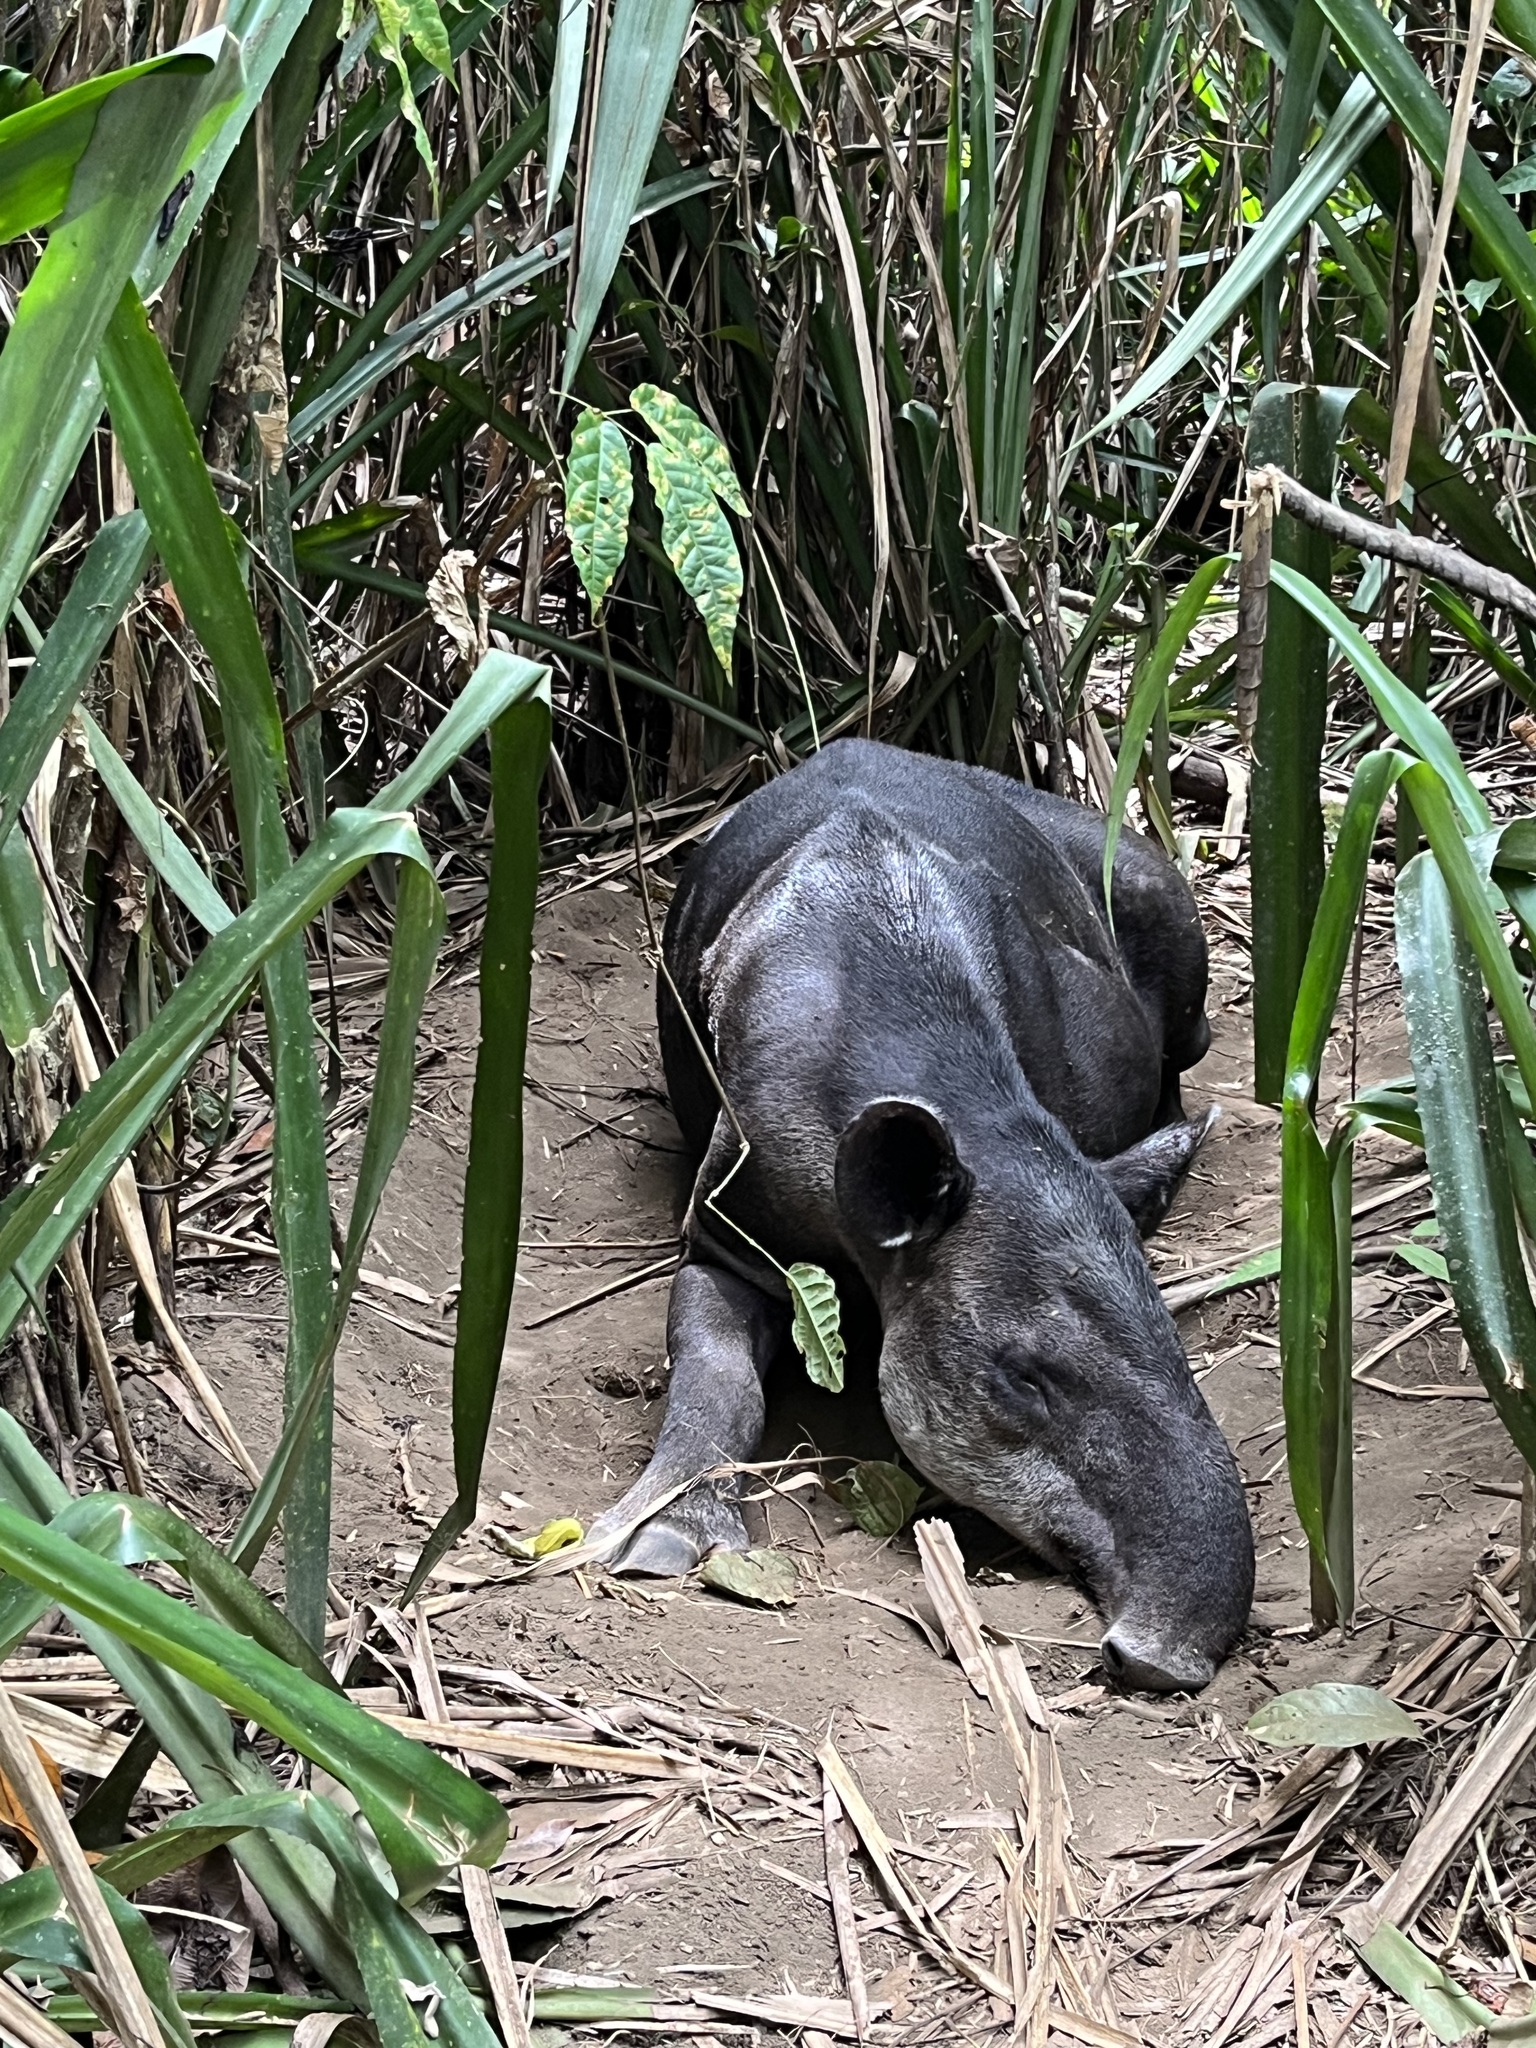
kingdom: Animalia
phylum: Chordata
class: Mammalia
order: Perissodactyla
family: Tapiridae
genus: Tapirella
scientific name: Tapirella bairdii
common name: Baird's tapir
